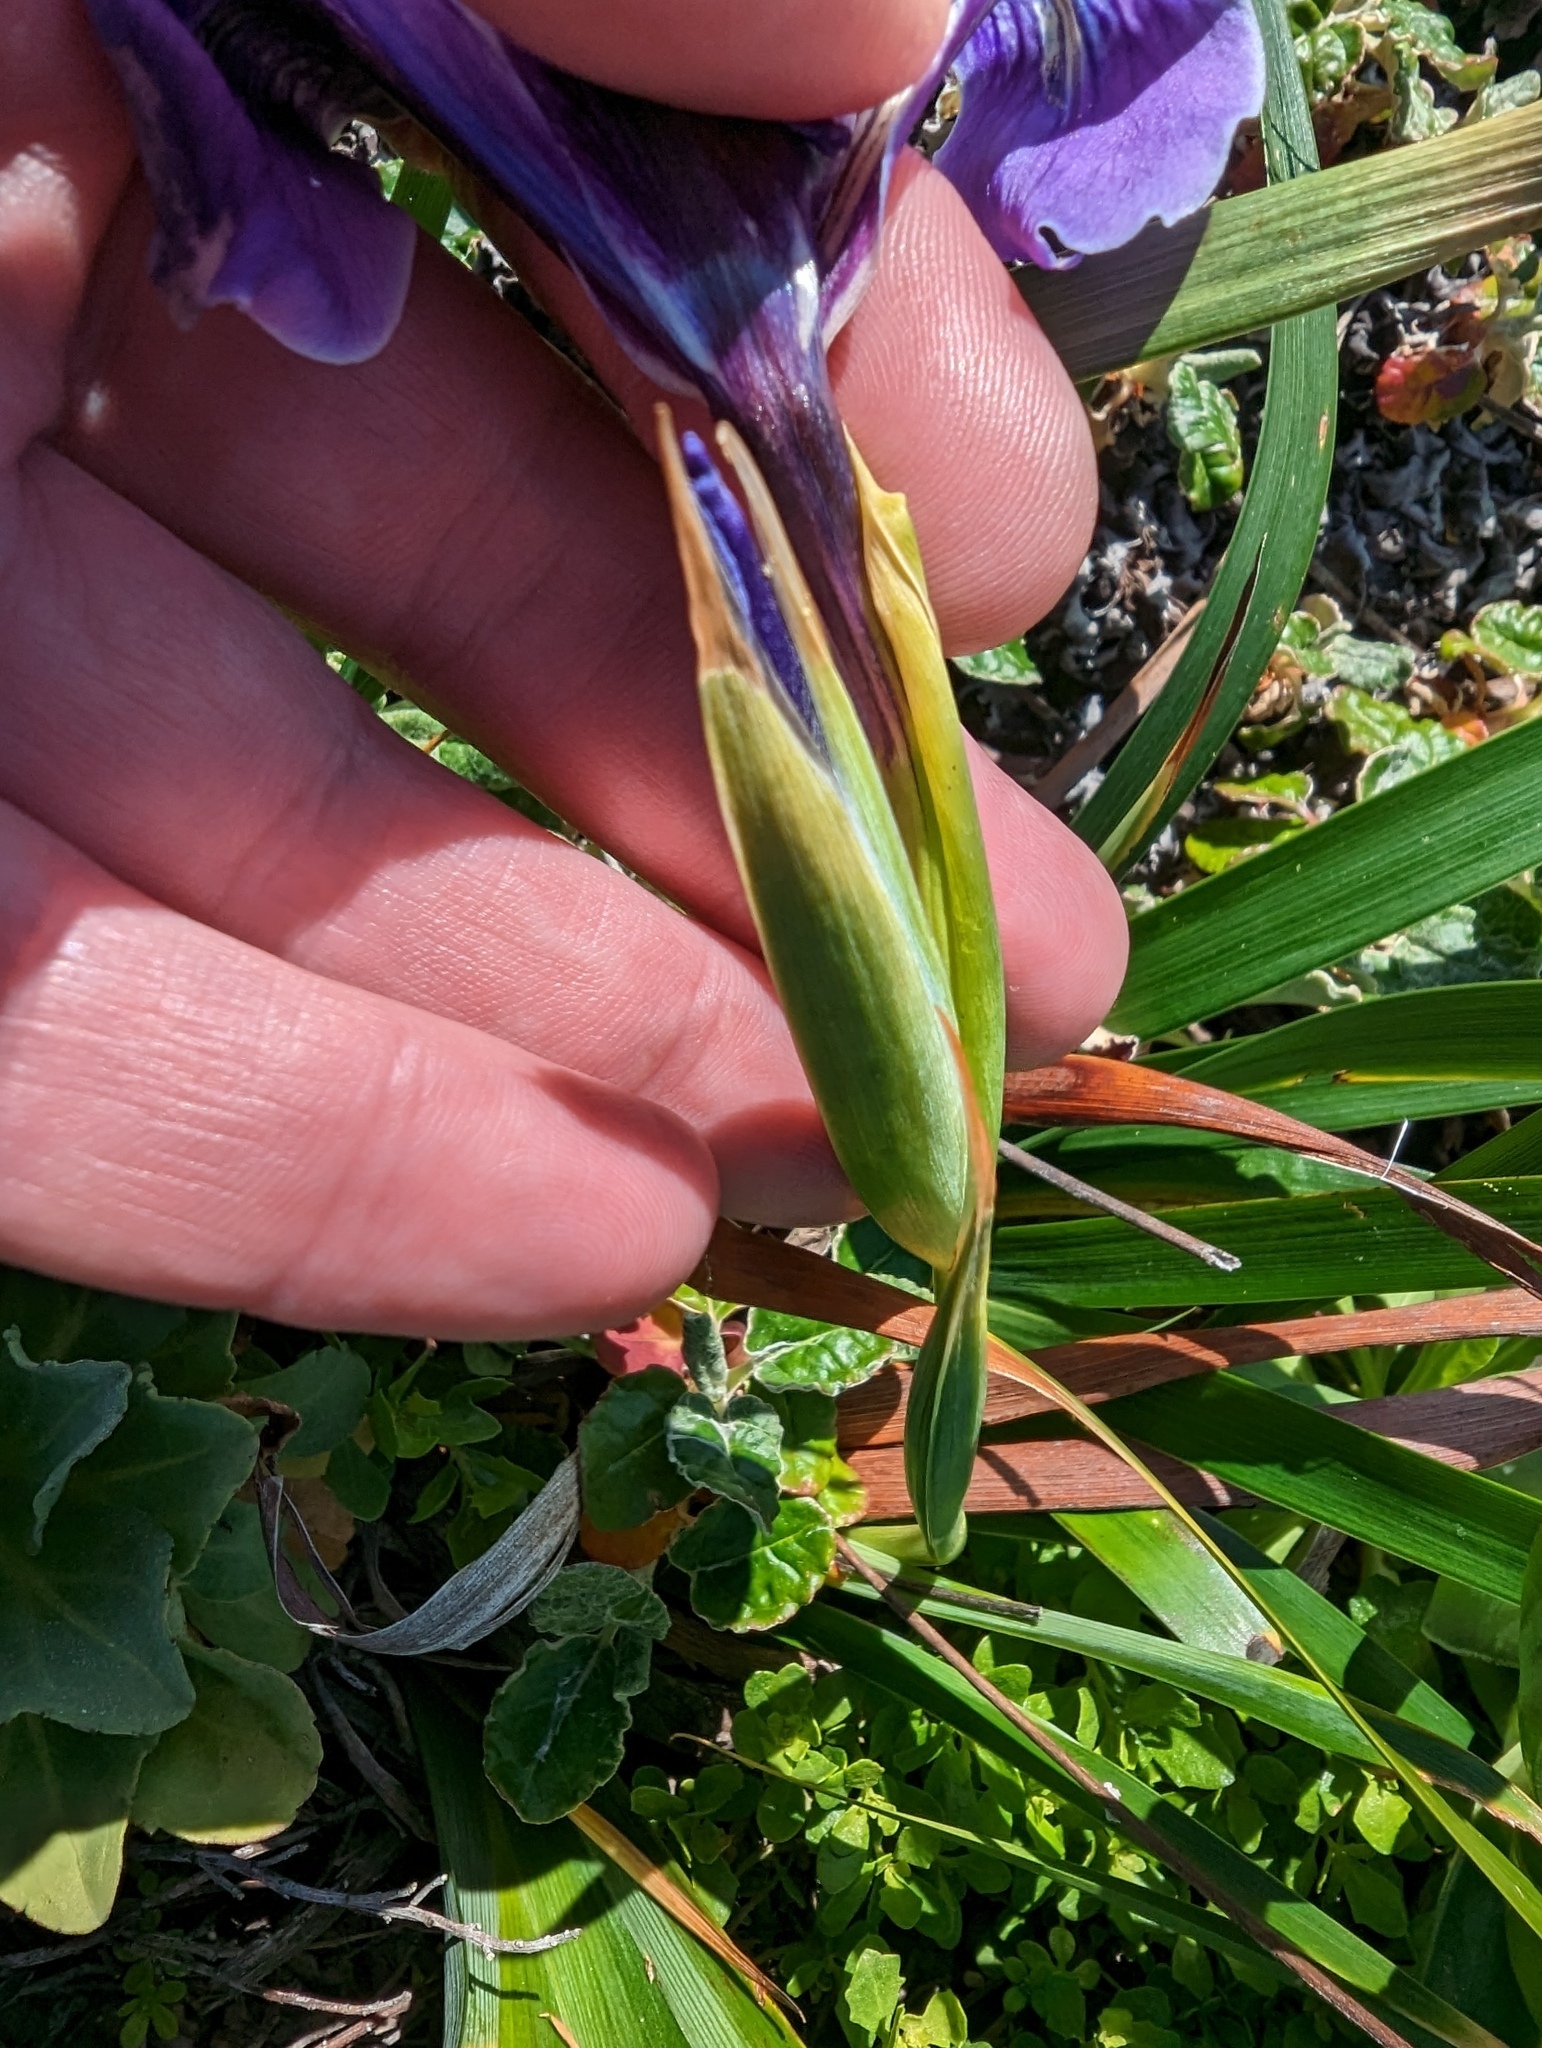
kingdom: Plantae
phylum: Tracheophyta
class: Liliopsida
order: Asparagales
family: Iridaceae
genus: Iris
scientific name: Iris douglasiana
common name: Marin iris
